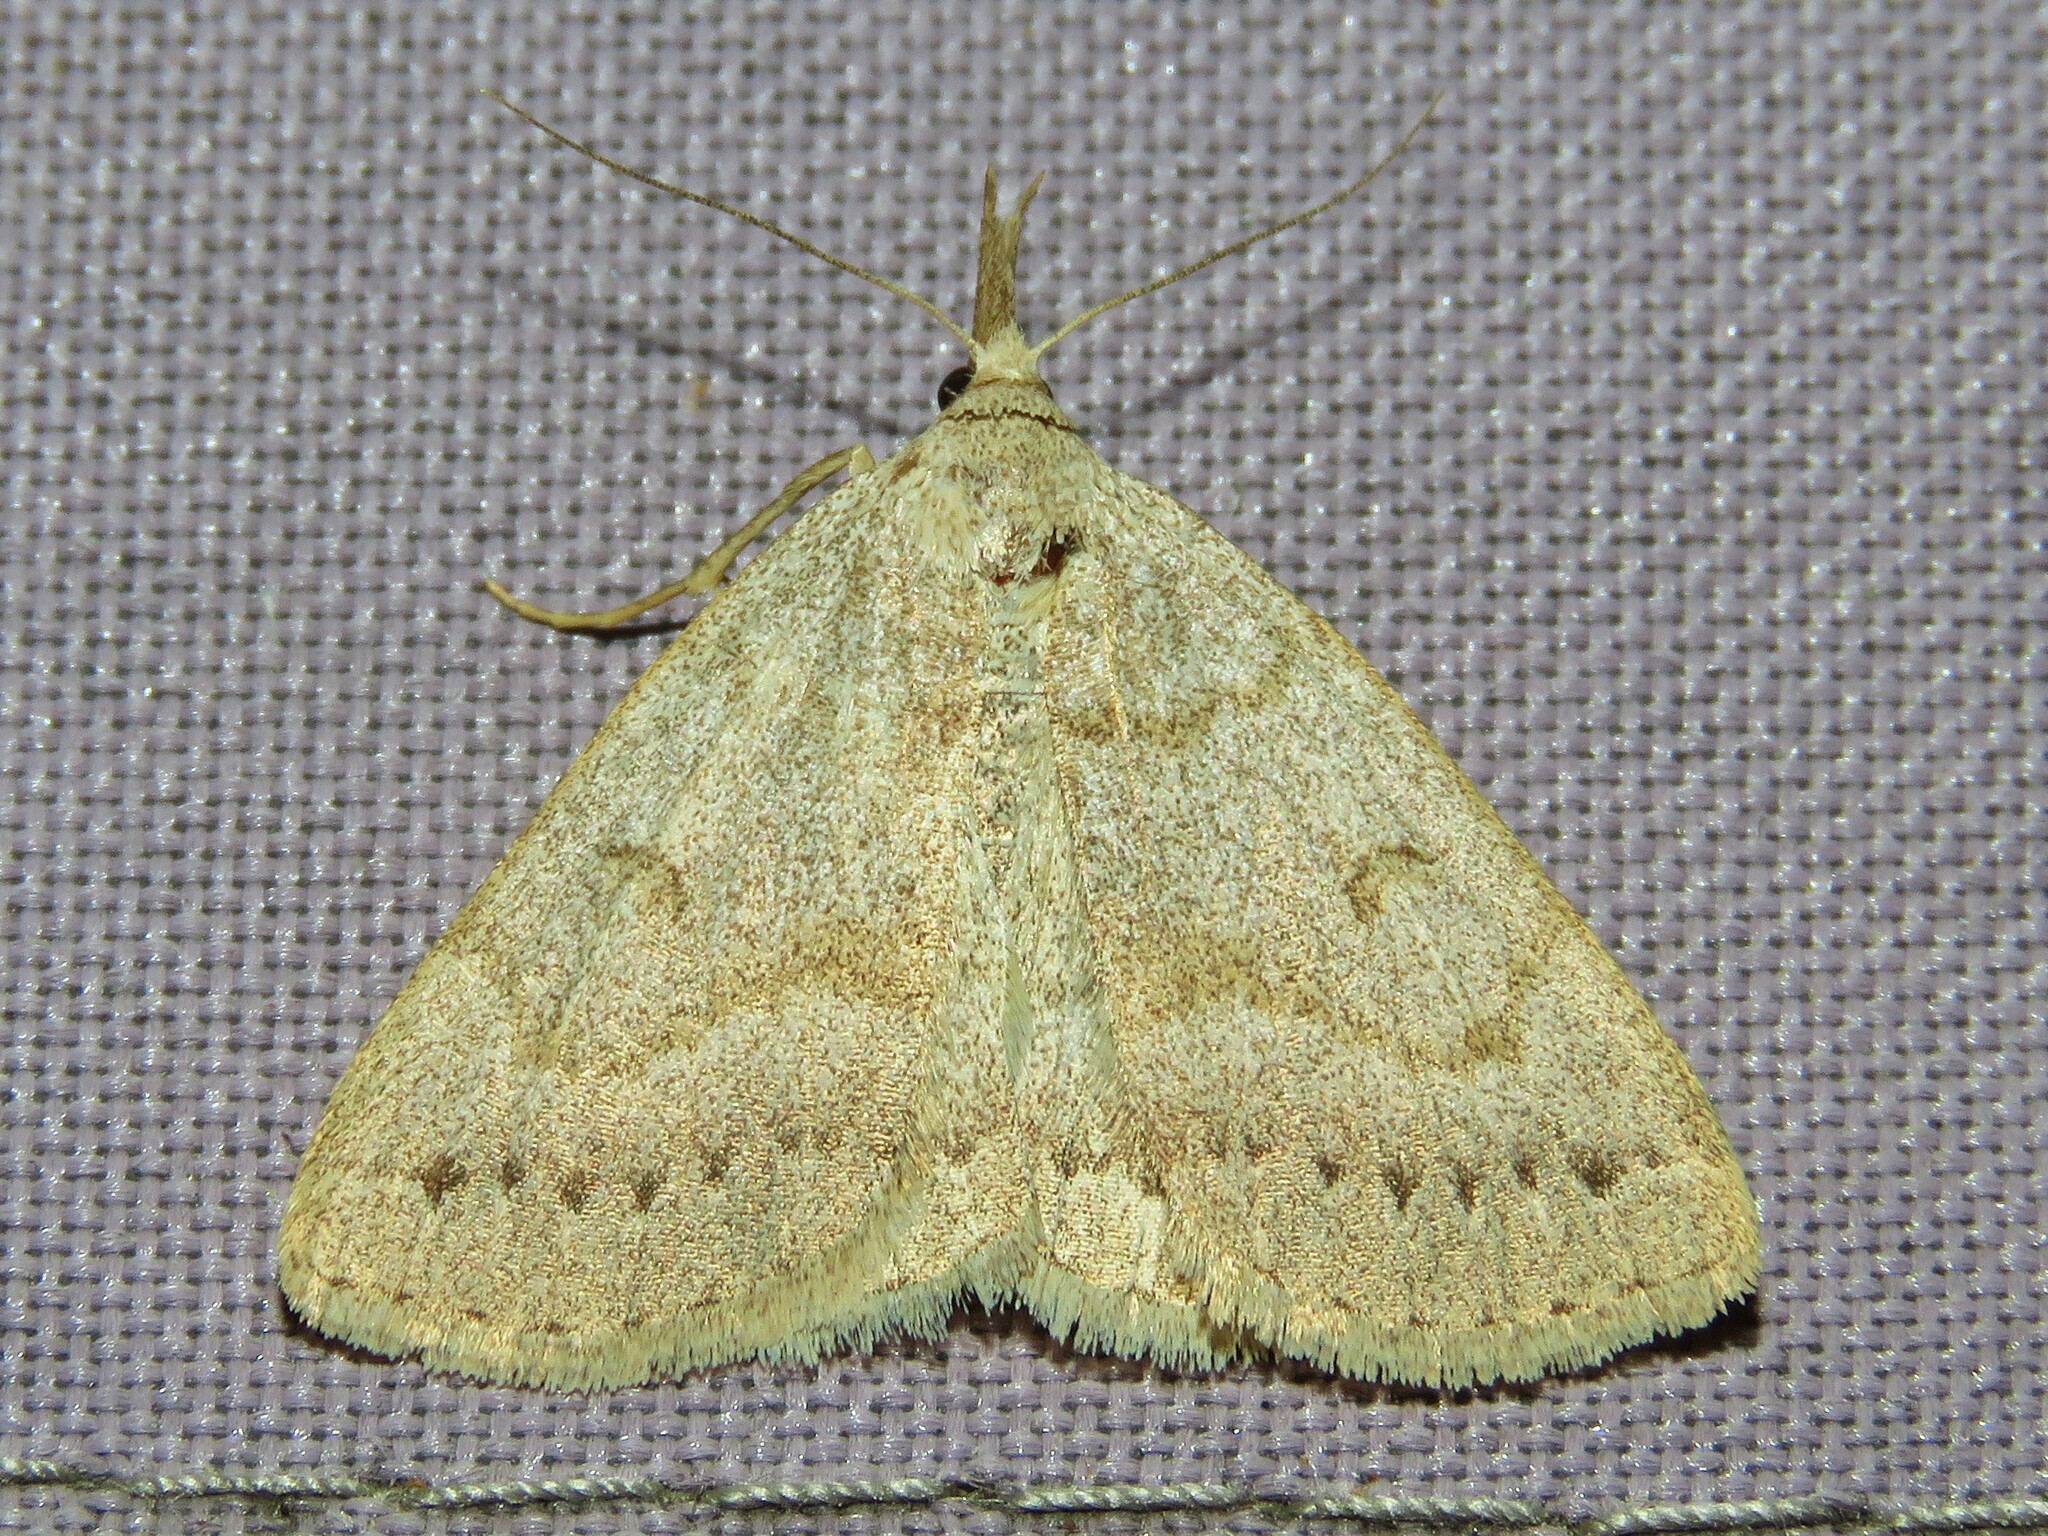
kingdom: Animalia
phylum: Arthropoda
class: Insecta
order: Lepidoptera
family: Erebidae
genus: Macrochilo
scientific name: Macrochilo morbidalis
